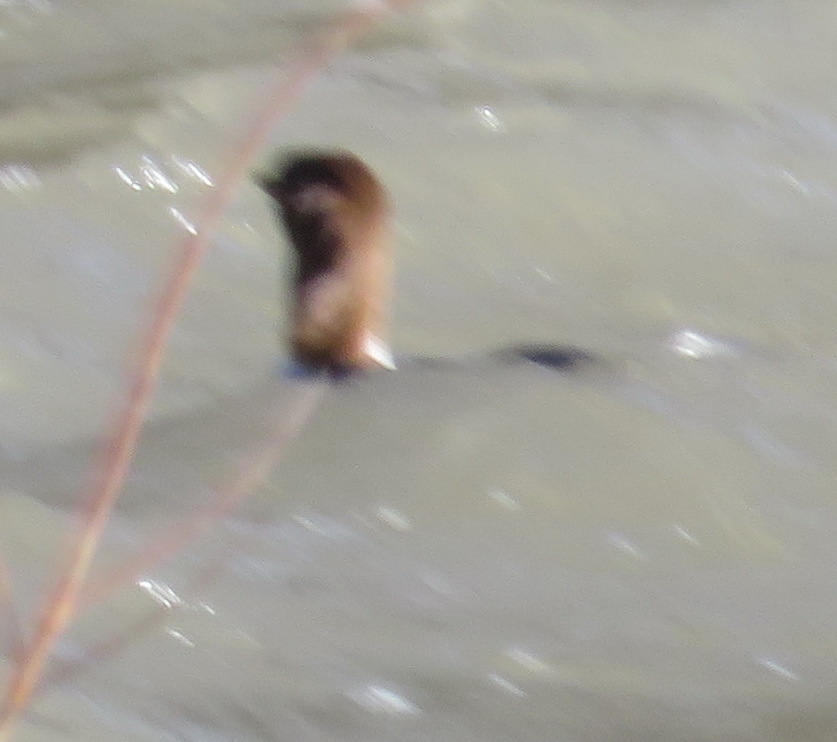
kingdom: Animalia
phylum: Chordata
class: Aves
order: Anseriformes
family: Anatidae
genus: Mergus
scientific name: Mergus merganser
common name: Common merganser
